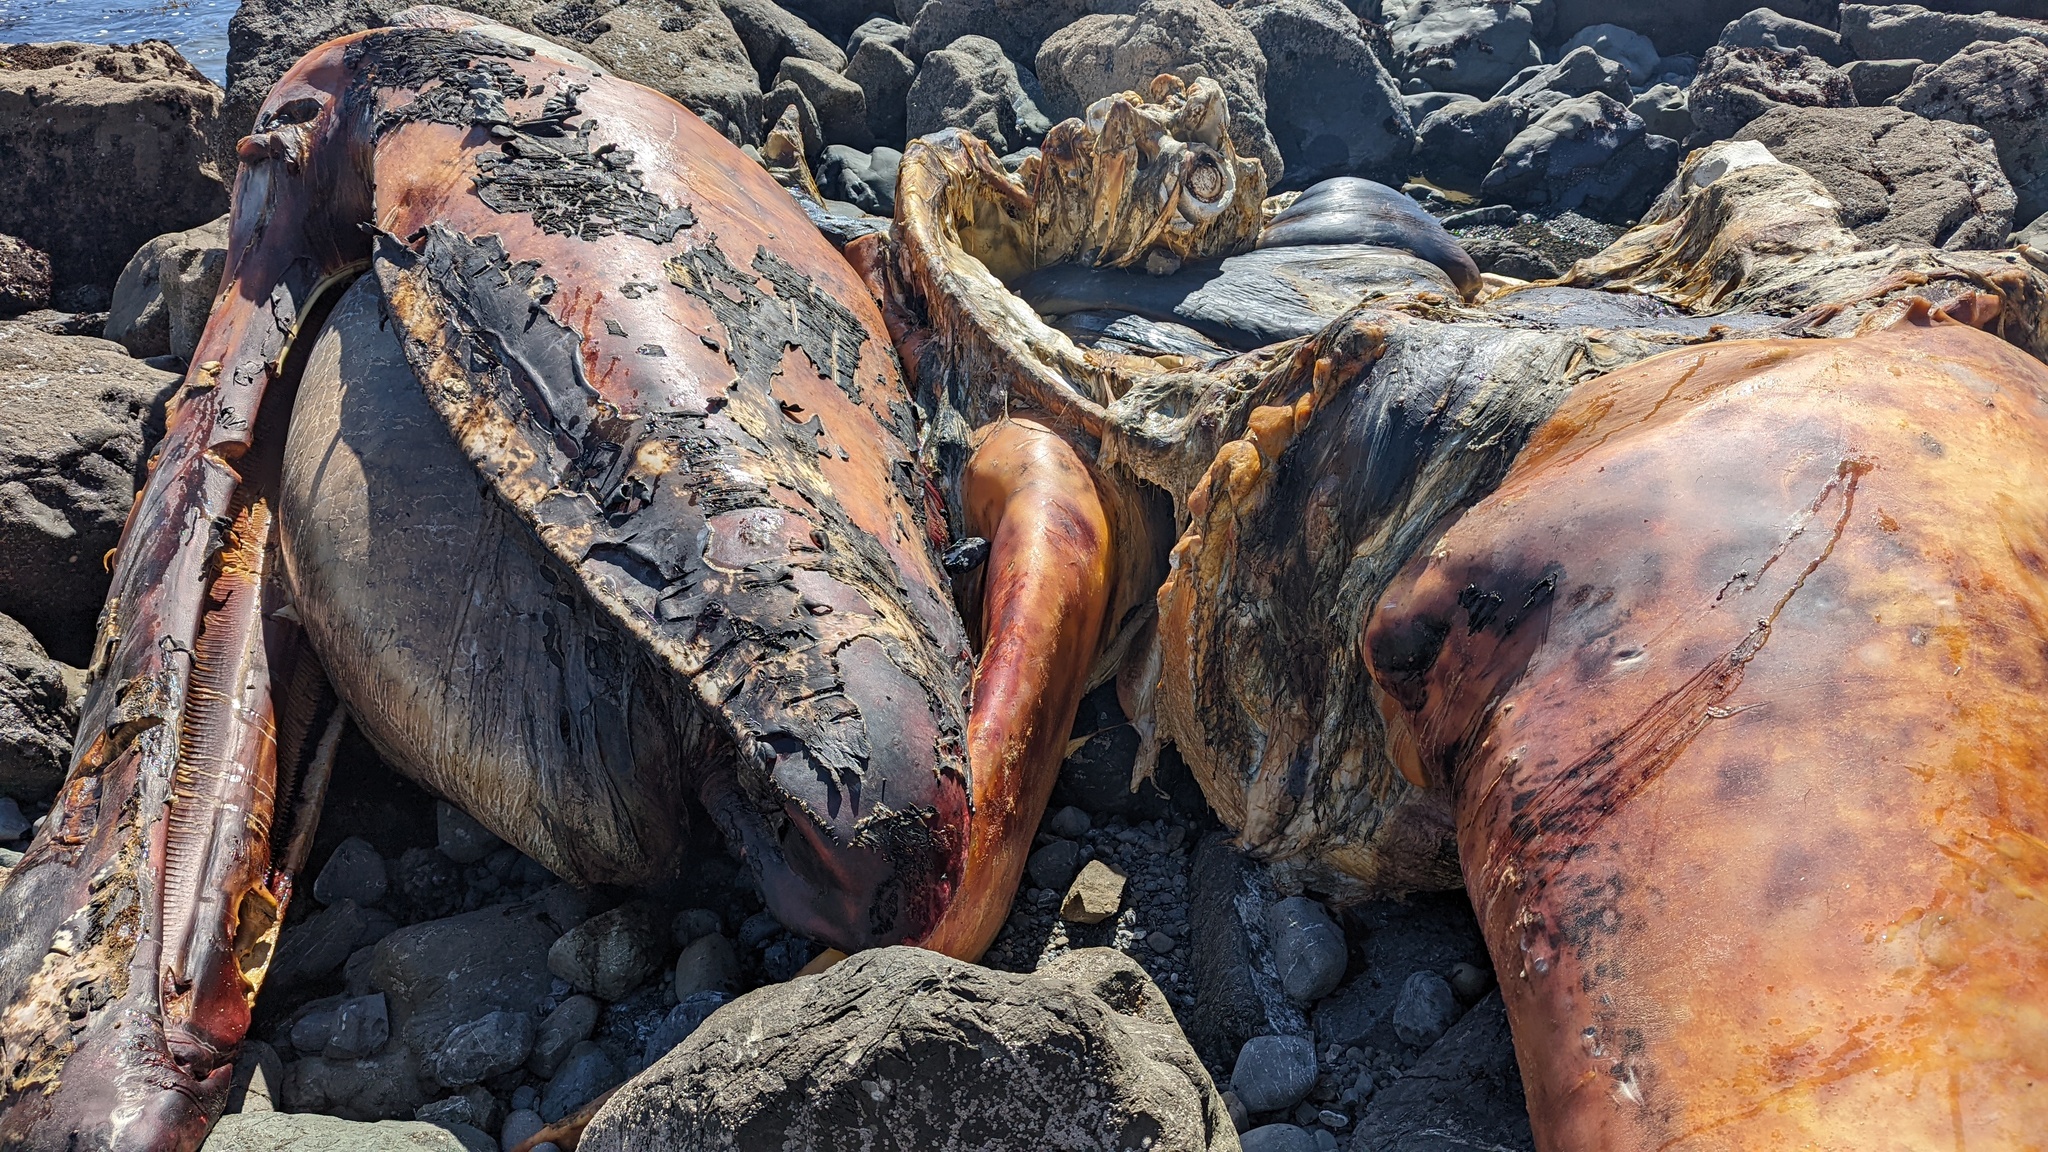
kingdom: Animalia
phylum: Chordata
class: Mammalia
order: Cetacea
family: Eschrichtiidae
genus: Eschrichtius
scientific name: Eschrichtius robustus
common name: Gray whale
